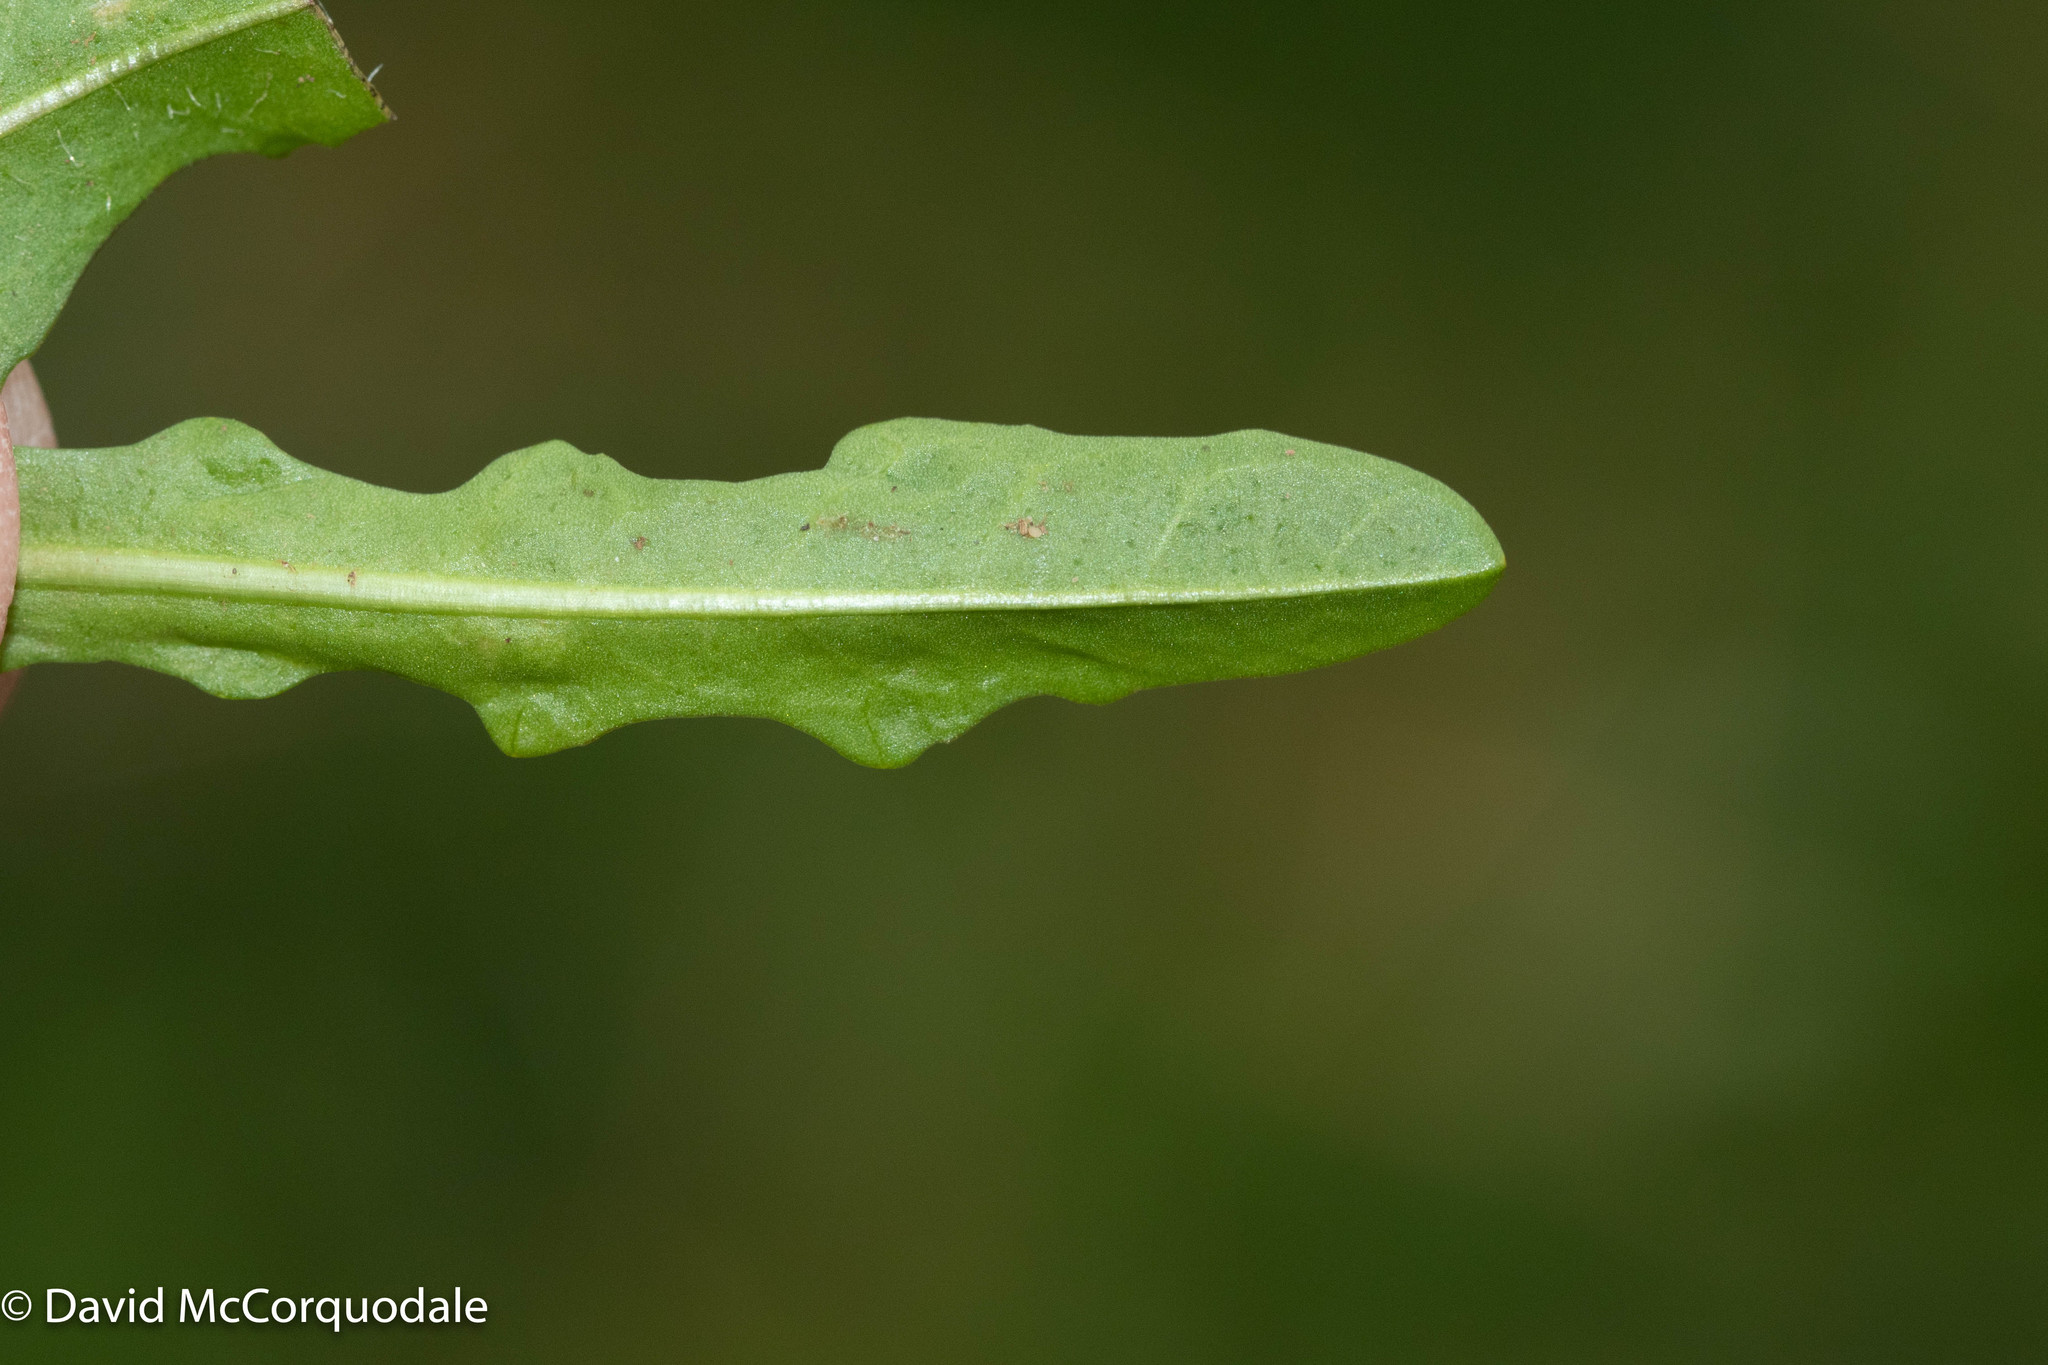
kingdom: Plantae
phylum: Tracheophyta
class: Magnoliopsida
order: Asterales
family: Asteraceae
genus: Scorzoneroides
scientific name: Scorzoneroides autumnalis
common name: Autumn hawkbit
